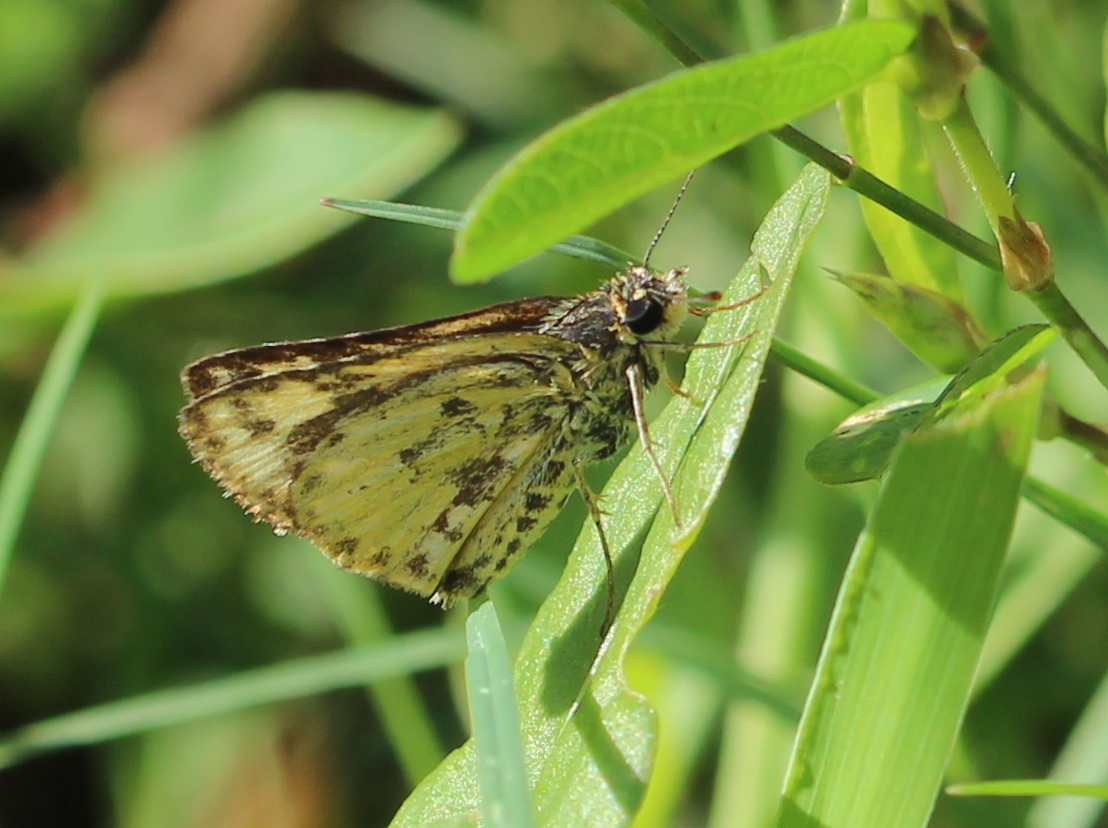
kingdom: Animalia
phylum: Arthropoda
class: Insecta
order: Lepidoptera
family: Hesperiidae
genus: Ampittia
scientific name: Ampittia dioscorides
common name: Common bush hopper
